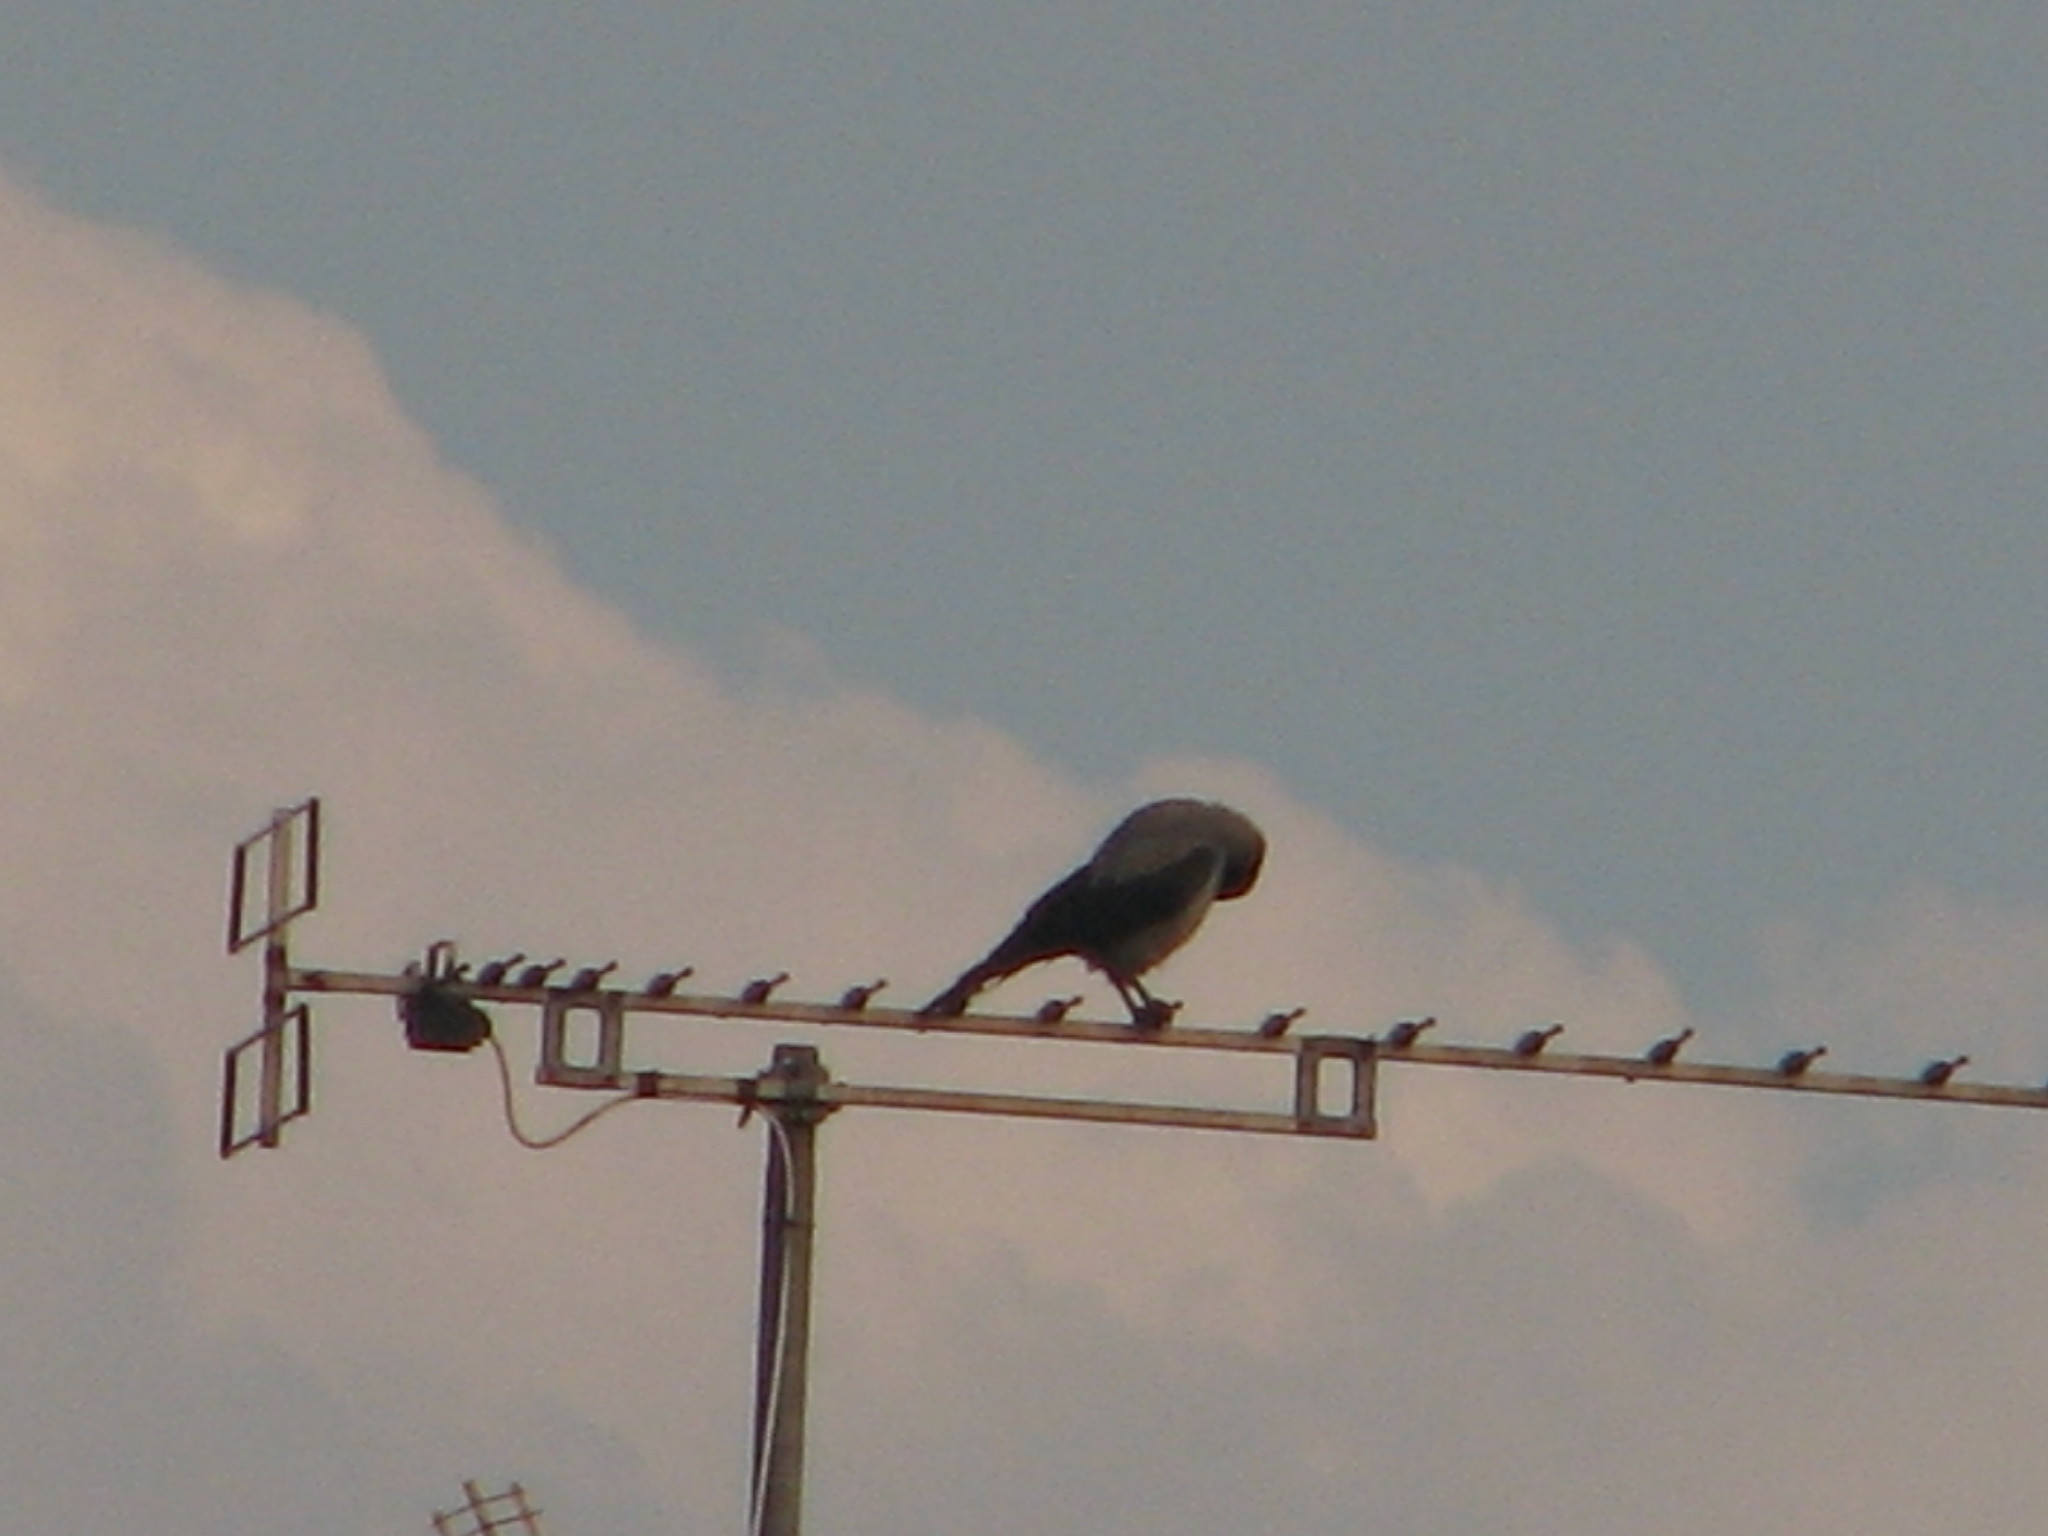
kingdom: Animalia
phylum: Chordata
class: Aves
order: Passeriformes
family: Corvidae
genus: Corvus
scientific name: Corvus cornix
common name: Hooded crow
